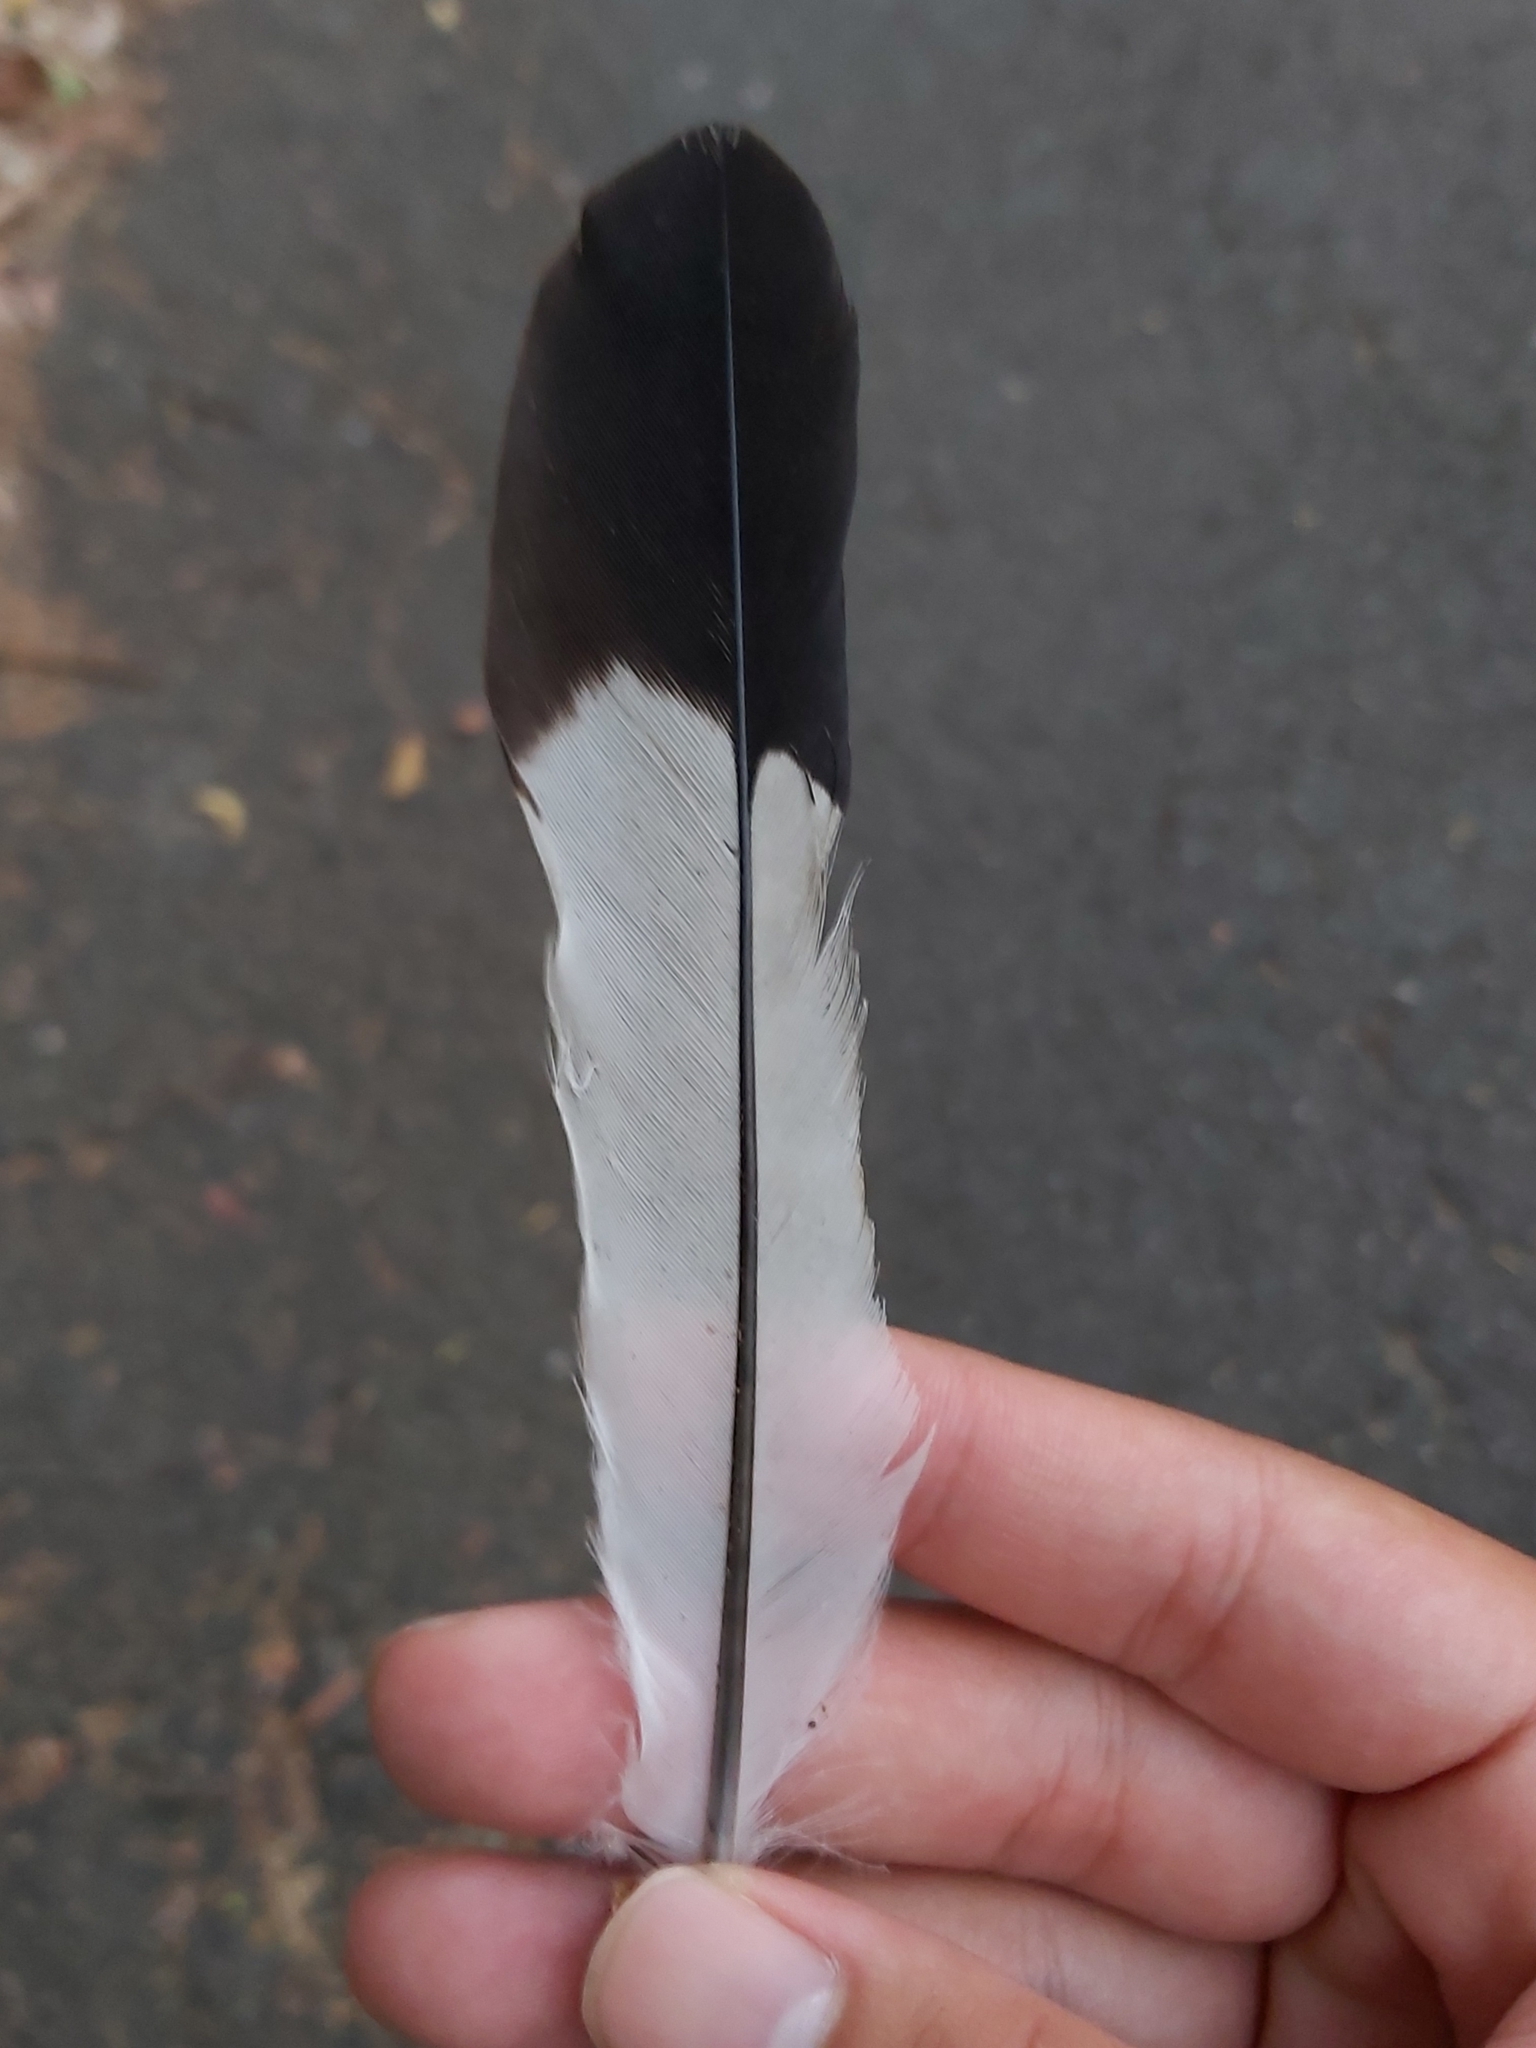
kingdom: Animalia
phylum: Chordata
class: Aves
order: Passeriformes
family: Cracticidae
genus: Gymnorhina
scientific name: Gymnorhina tibicen
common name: Australian magpie
